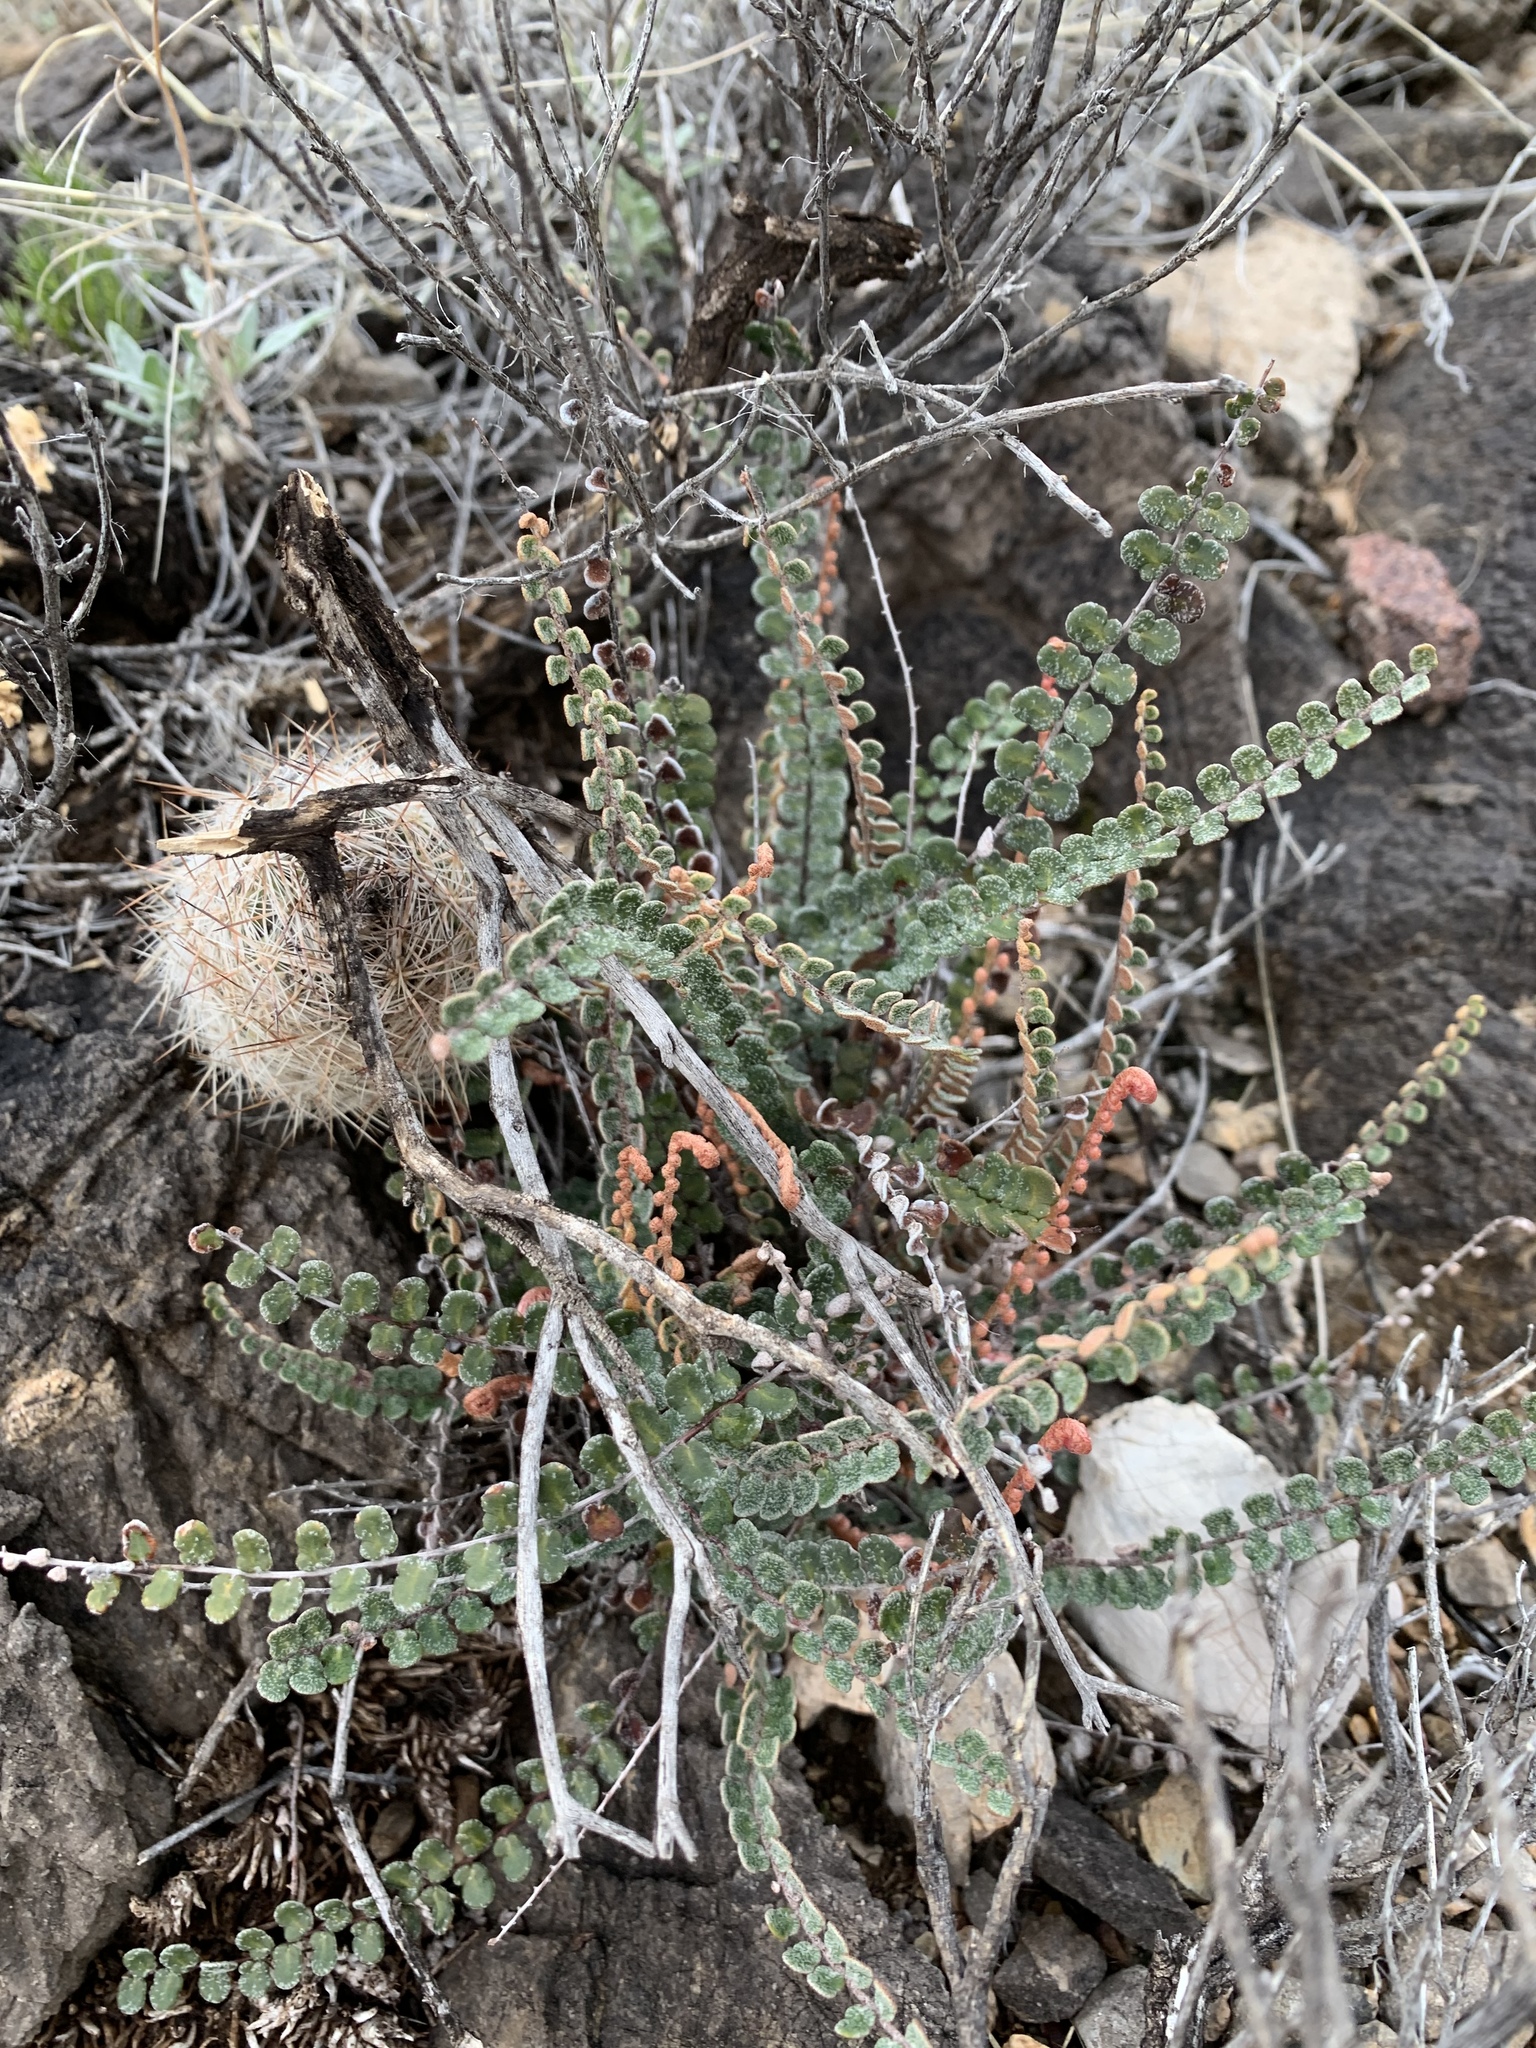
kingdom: Plantae
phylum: Tracheophyta
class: Polypodiopsida
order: Polypodiales
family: Pteridaceae
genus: Astrolepis
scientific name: Astrolepis cochisensis
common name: Scaly cloak fern
